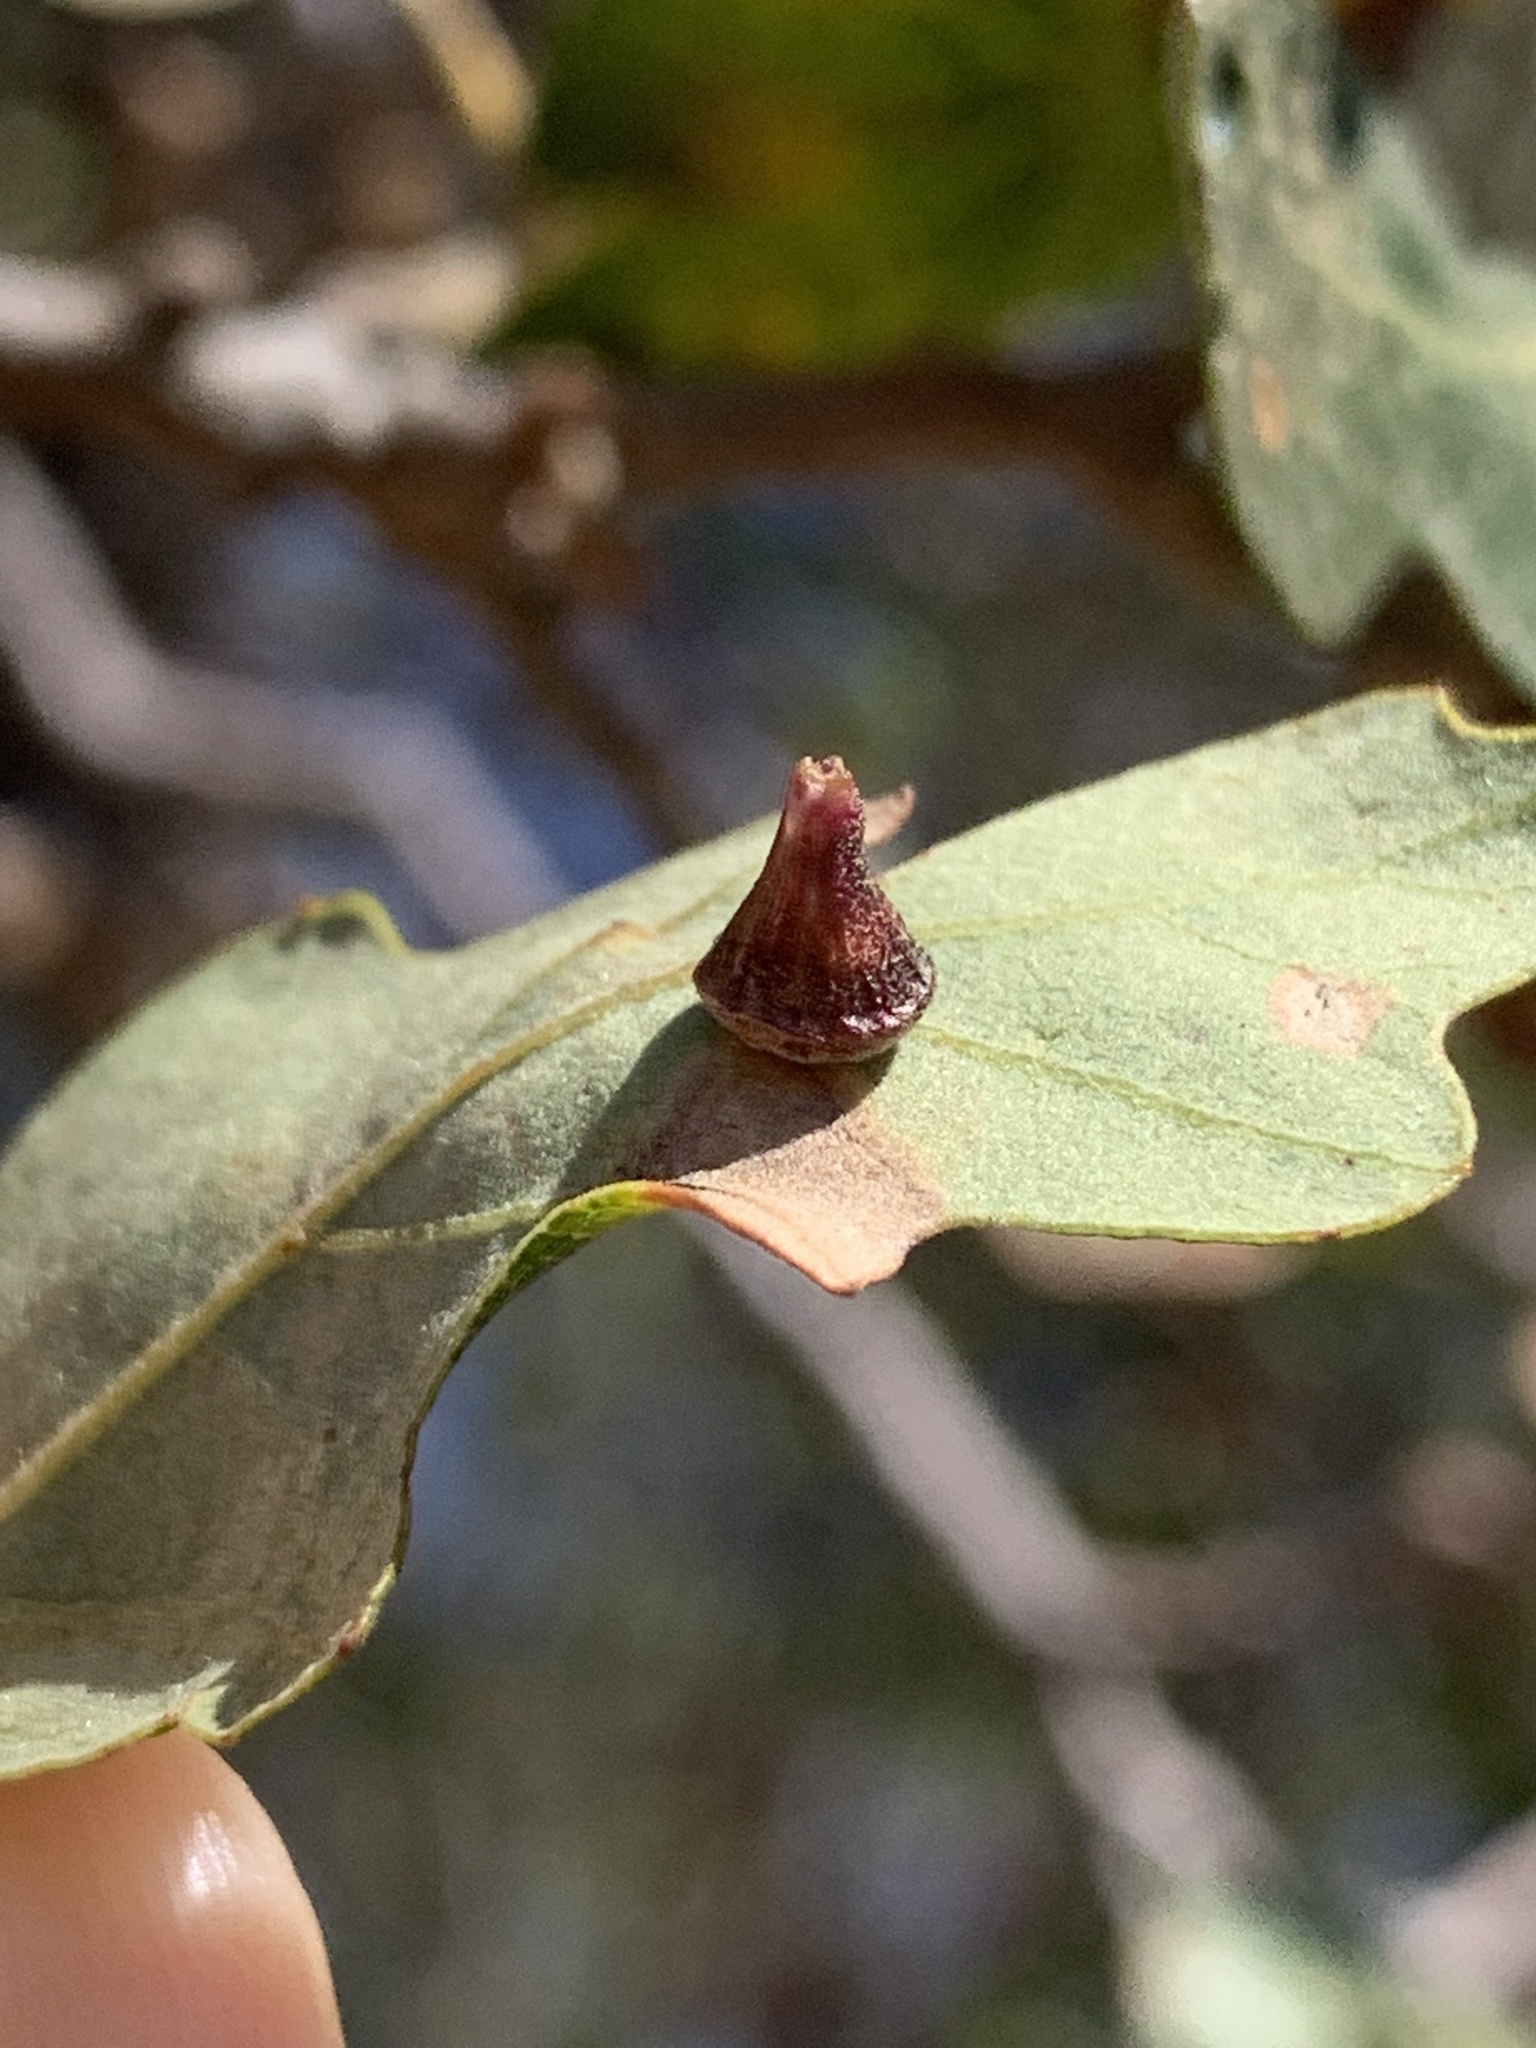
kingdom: Animalia
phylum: Arthropoda
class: Insecta
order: Hymenoptera
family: Cynipidae
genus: Andricus
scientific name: Andricus
